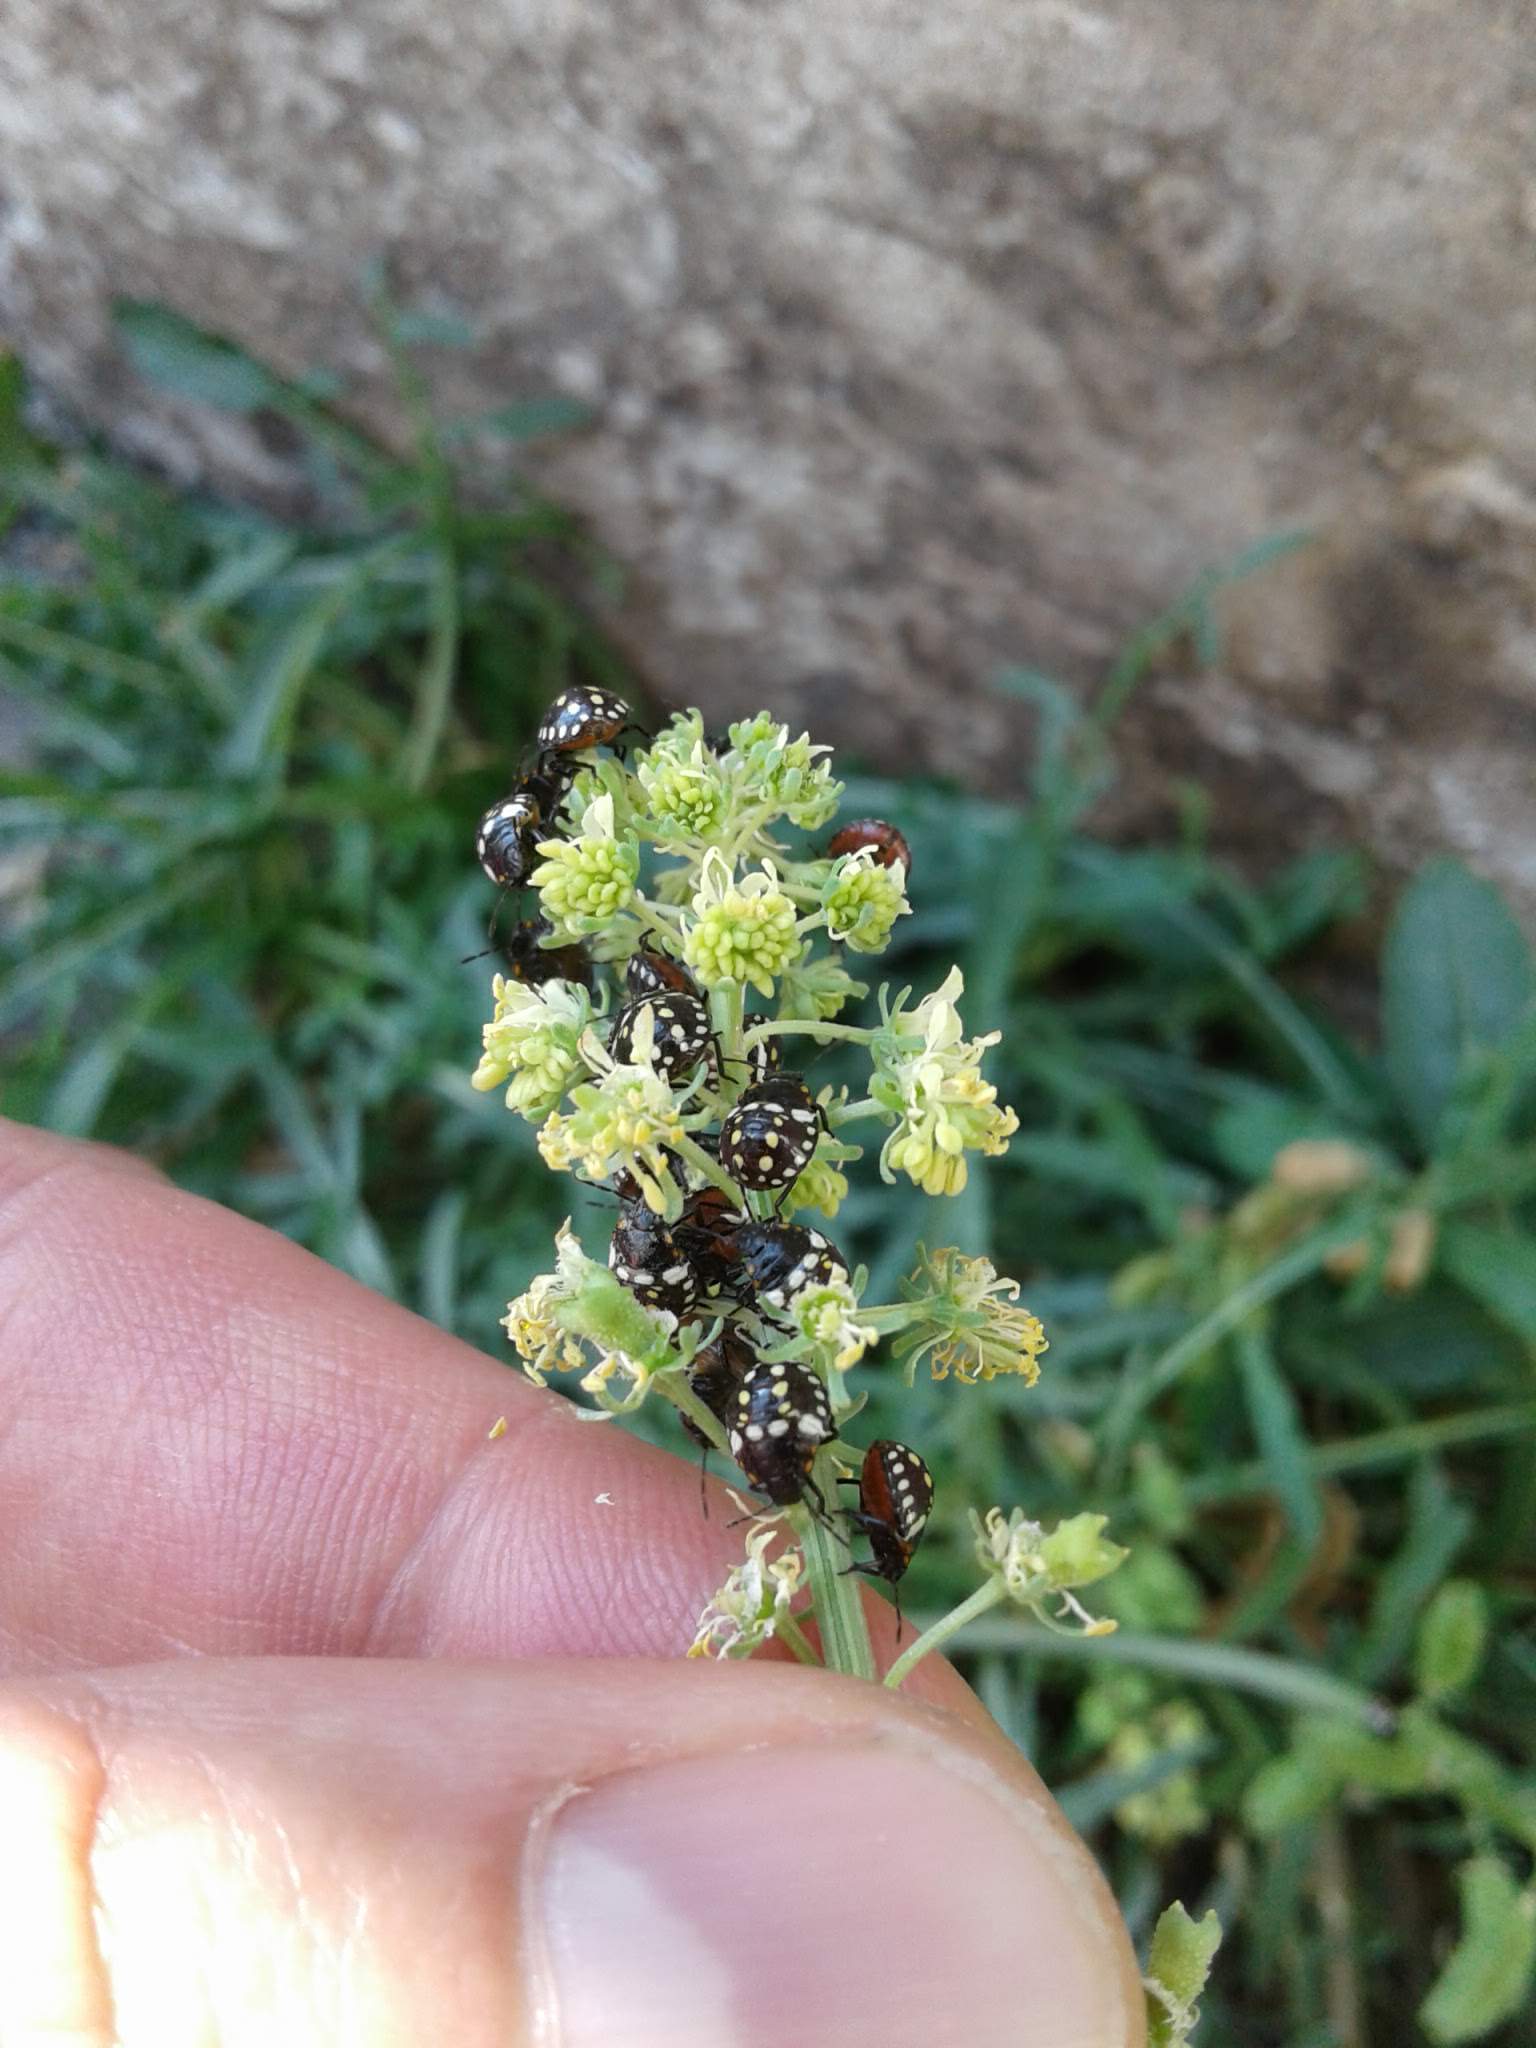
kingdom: Plantae
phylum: Tracheophyta
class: Magnoliopsida
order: Brassicales
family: Resedaceae
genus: Reseda
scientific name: Reseda lutea
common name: Wild mignonette
